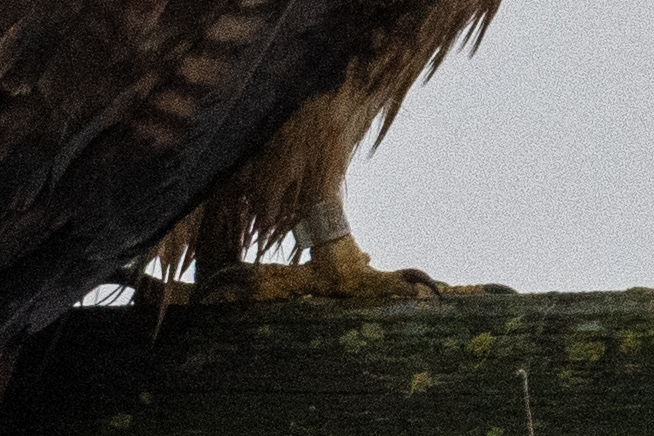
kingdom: Animalia
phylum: Chordata
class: Aves
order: Accipitriformes
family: Accipitridae
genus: Buteo
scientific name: Buteo jamaicensis
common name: Red-tailed hawk
